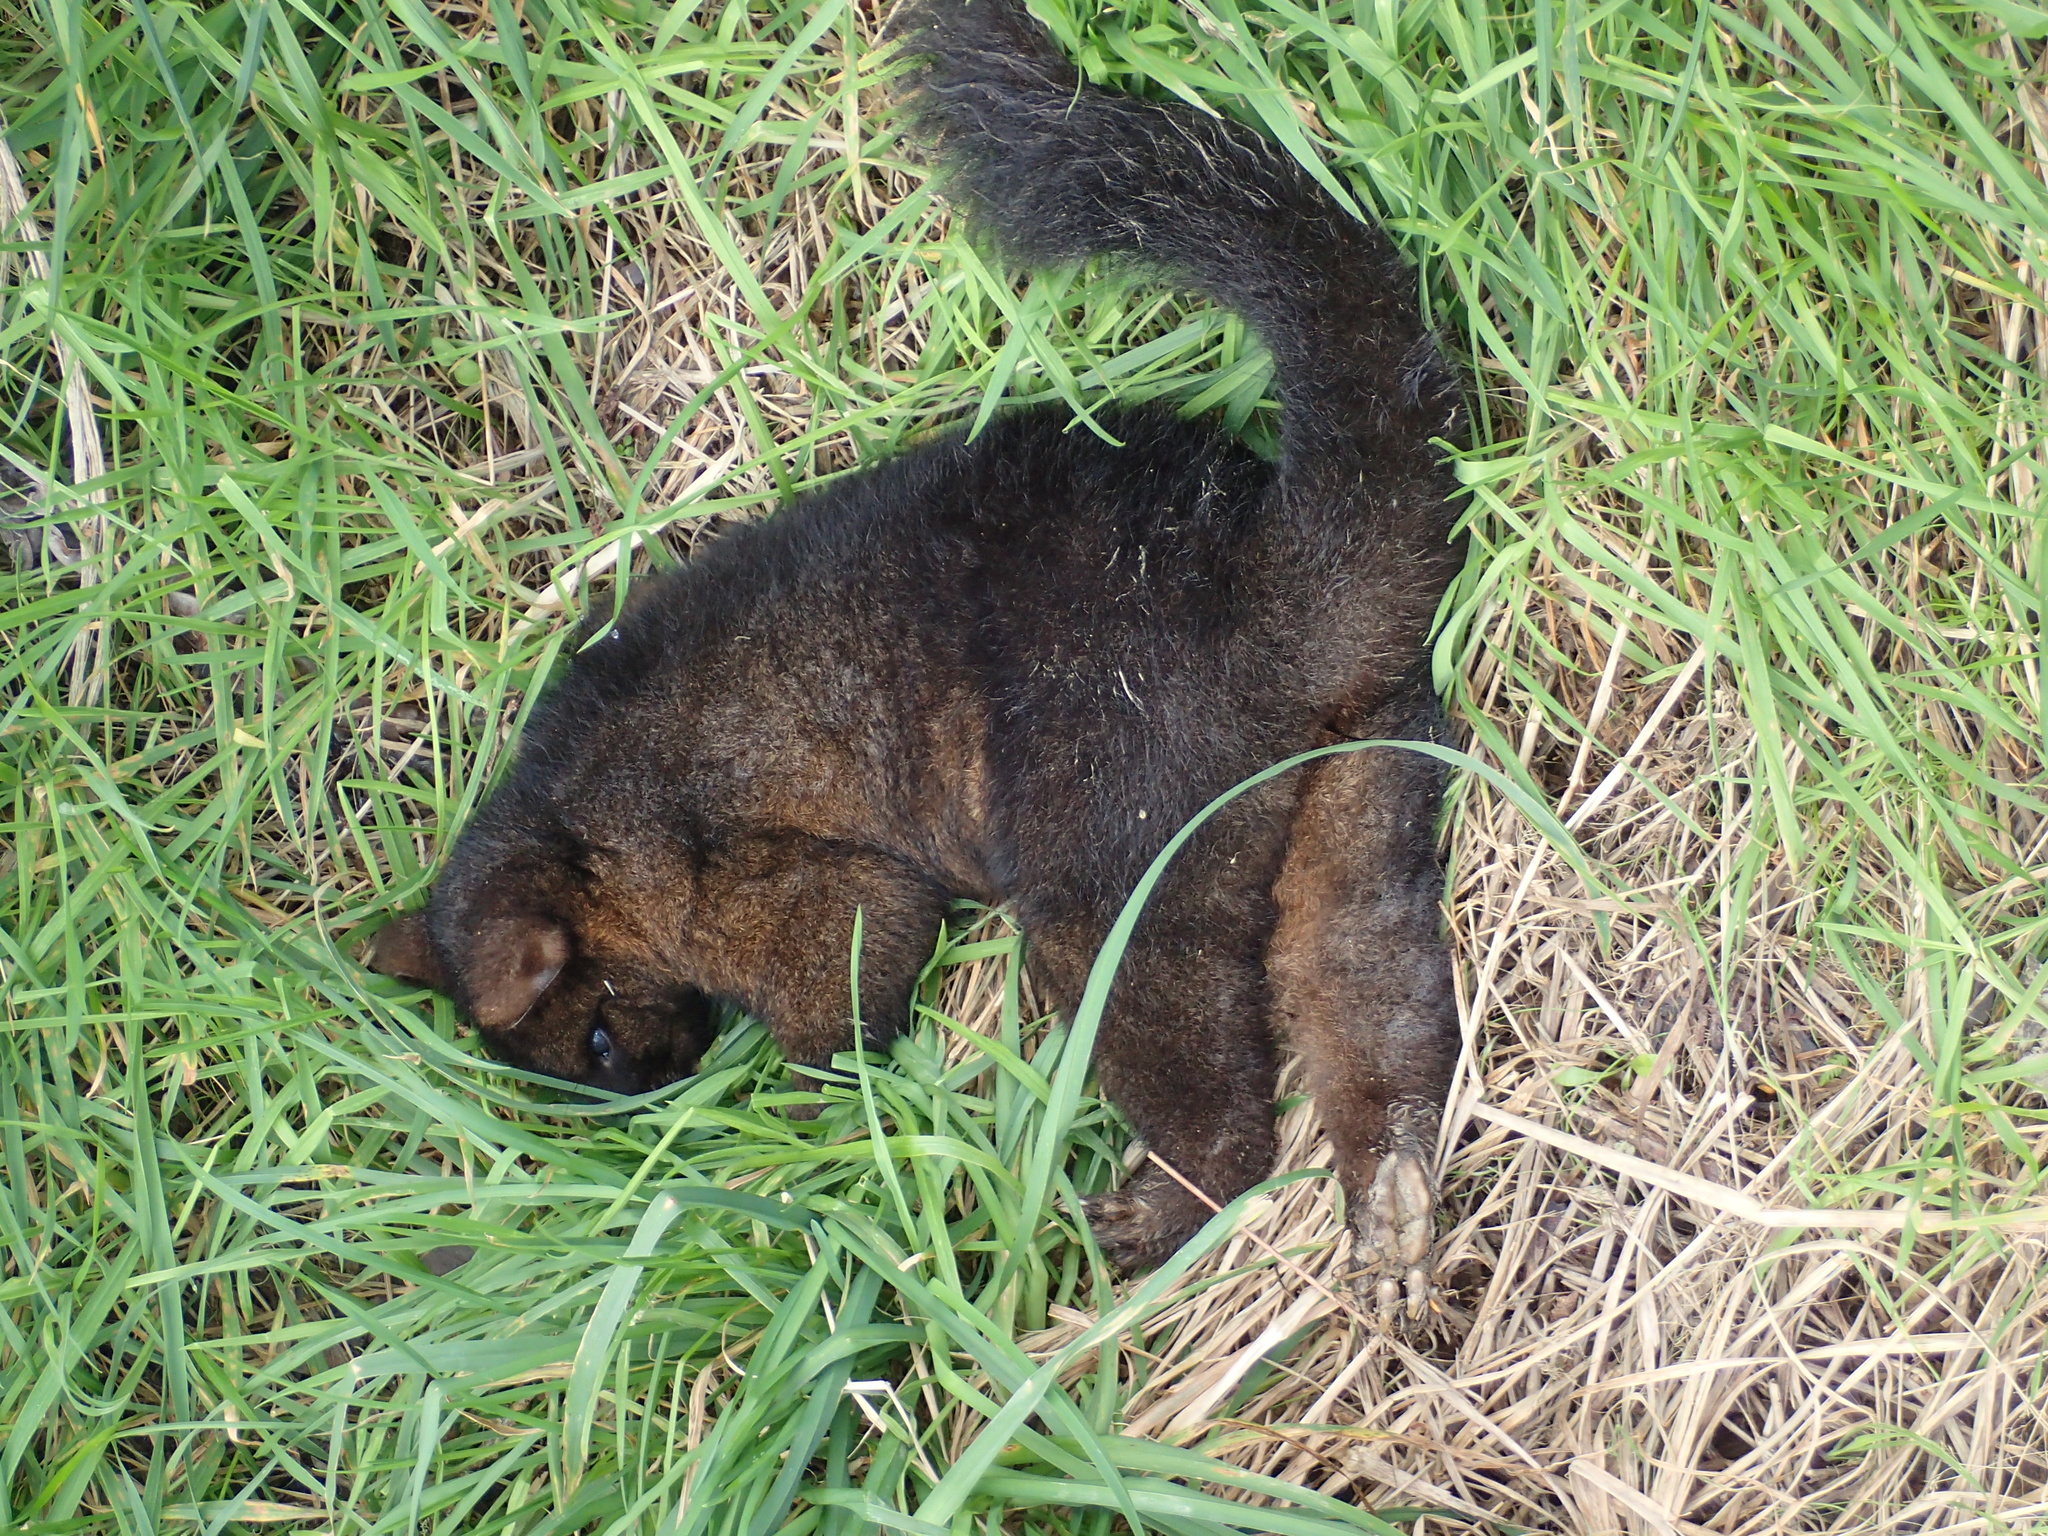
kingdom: Animalia
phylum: Chordata
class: Mammalia
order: Diprotodontia
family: Phalangeridae
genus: Trichosurus
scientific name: Trichosurus vulpecula
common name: Common brushtail
